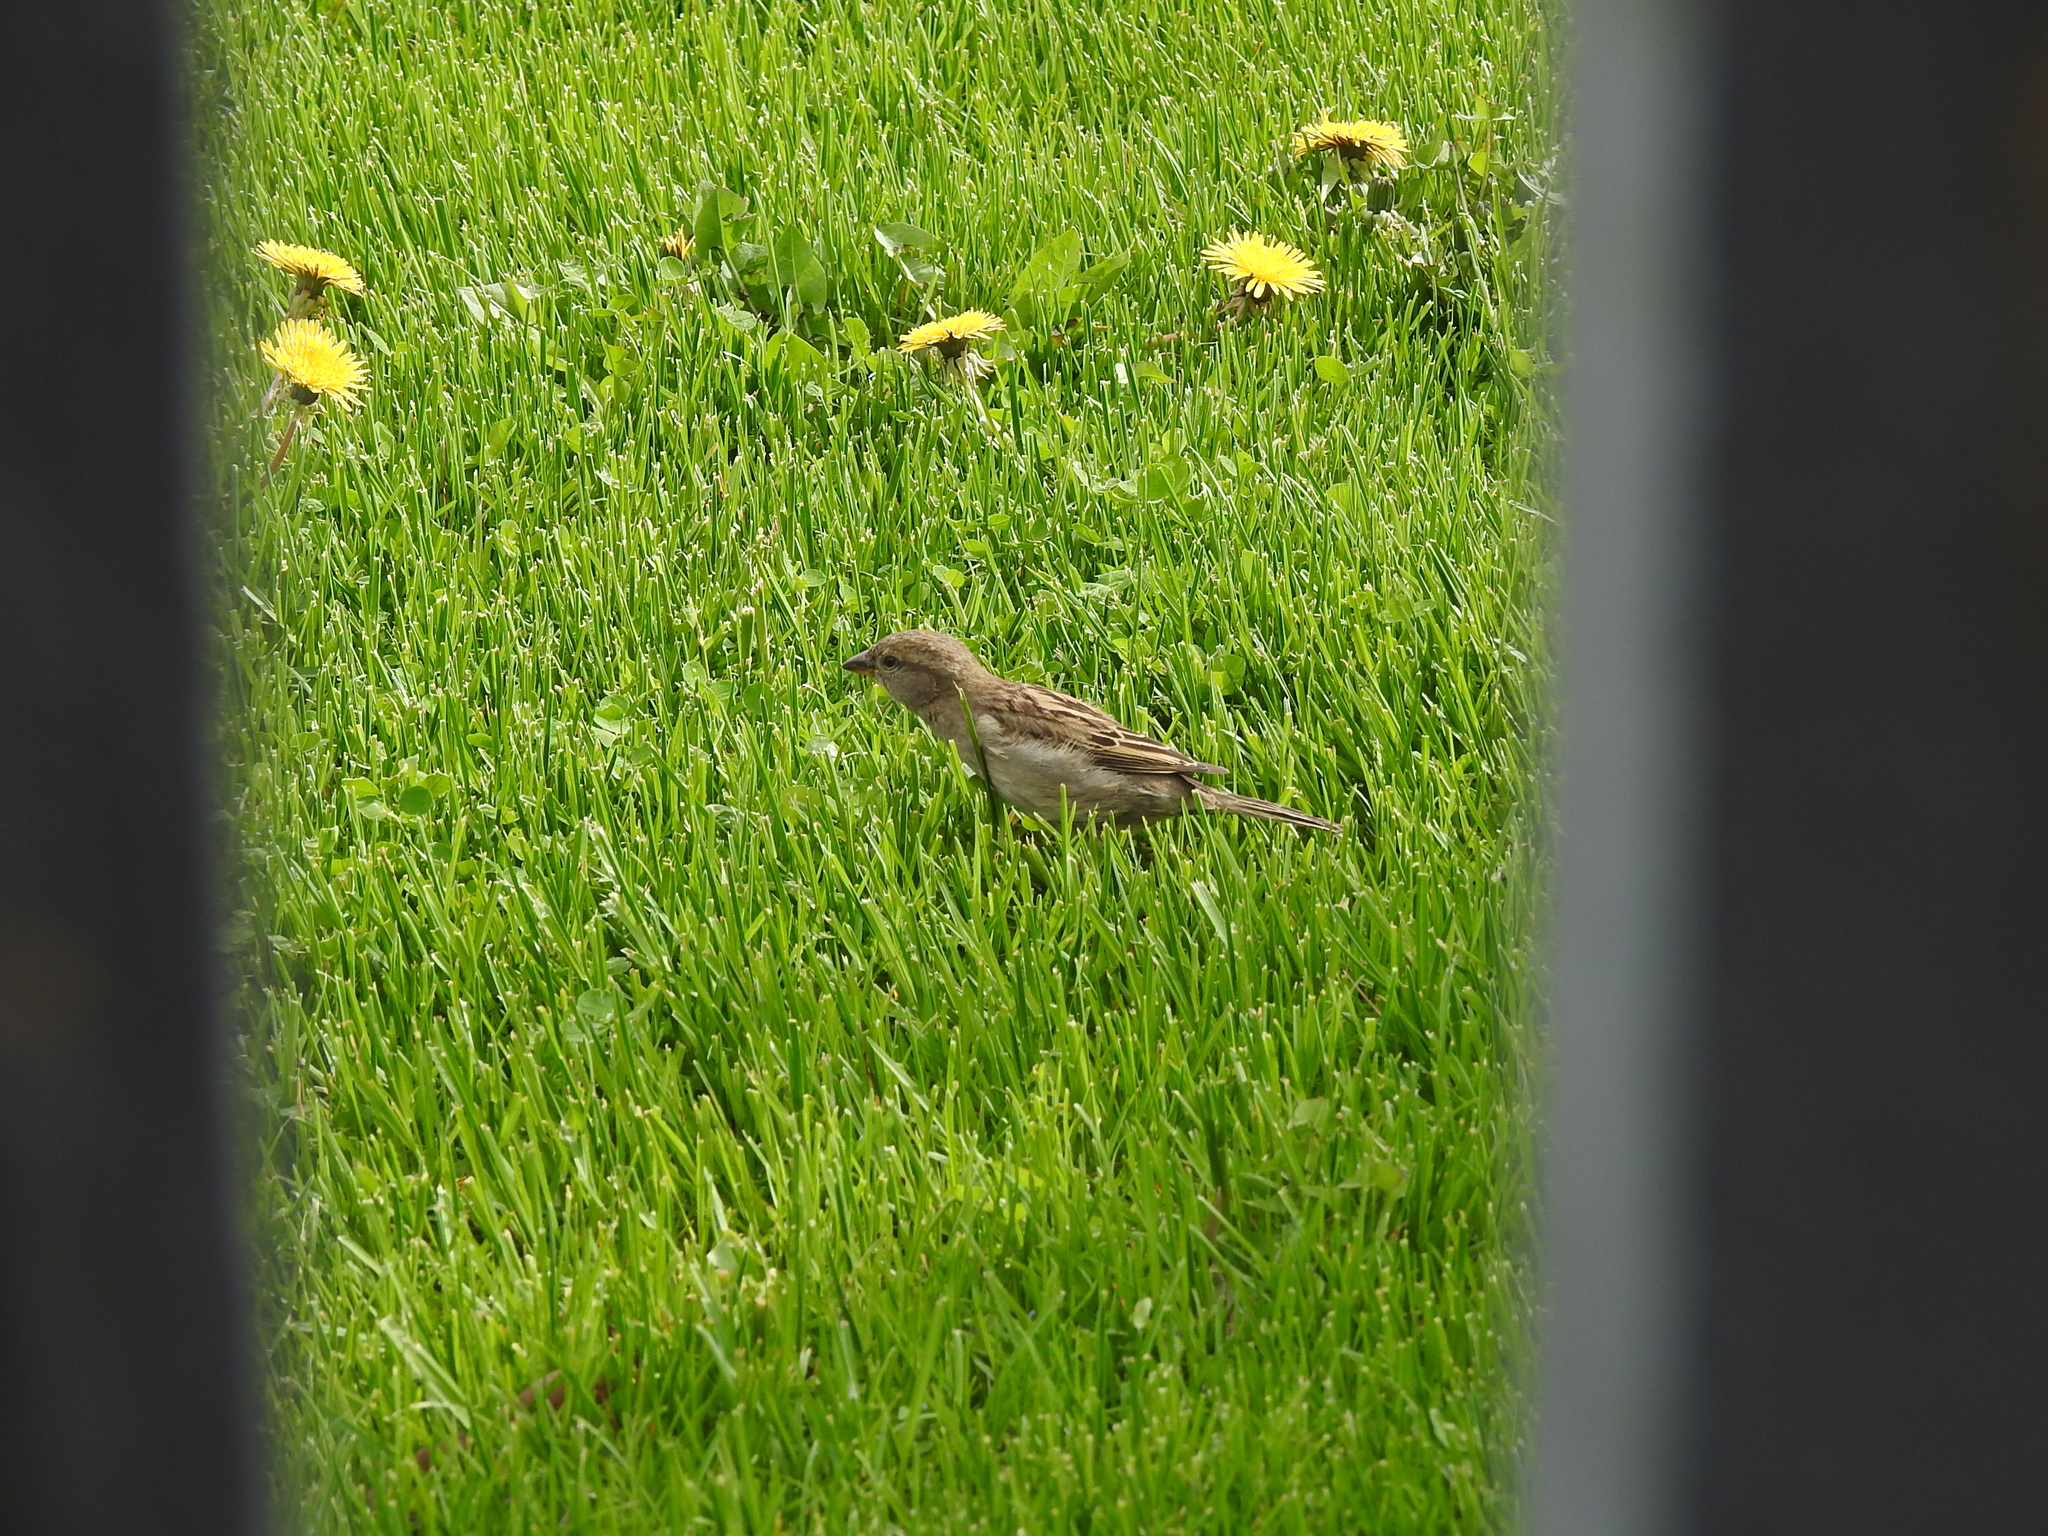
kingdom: Animalia
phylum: Chordata
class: Aves
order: Passeriformes
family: Passeridae
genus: Passer
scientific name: Passer domesticus
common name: House sparrow
